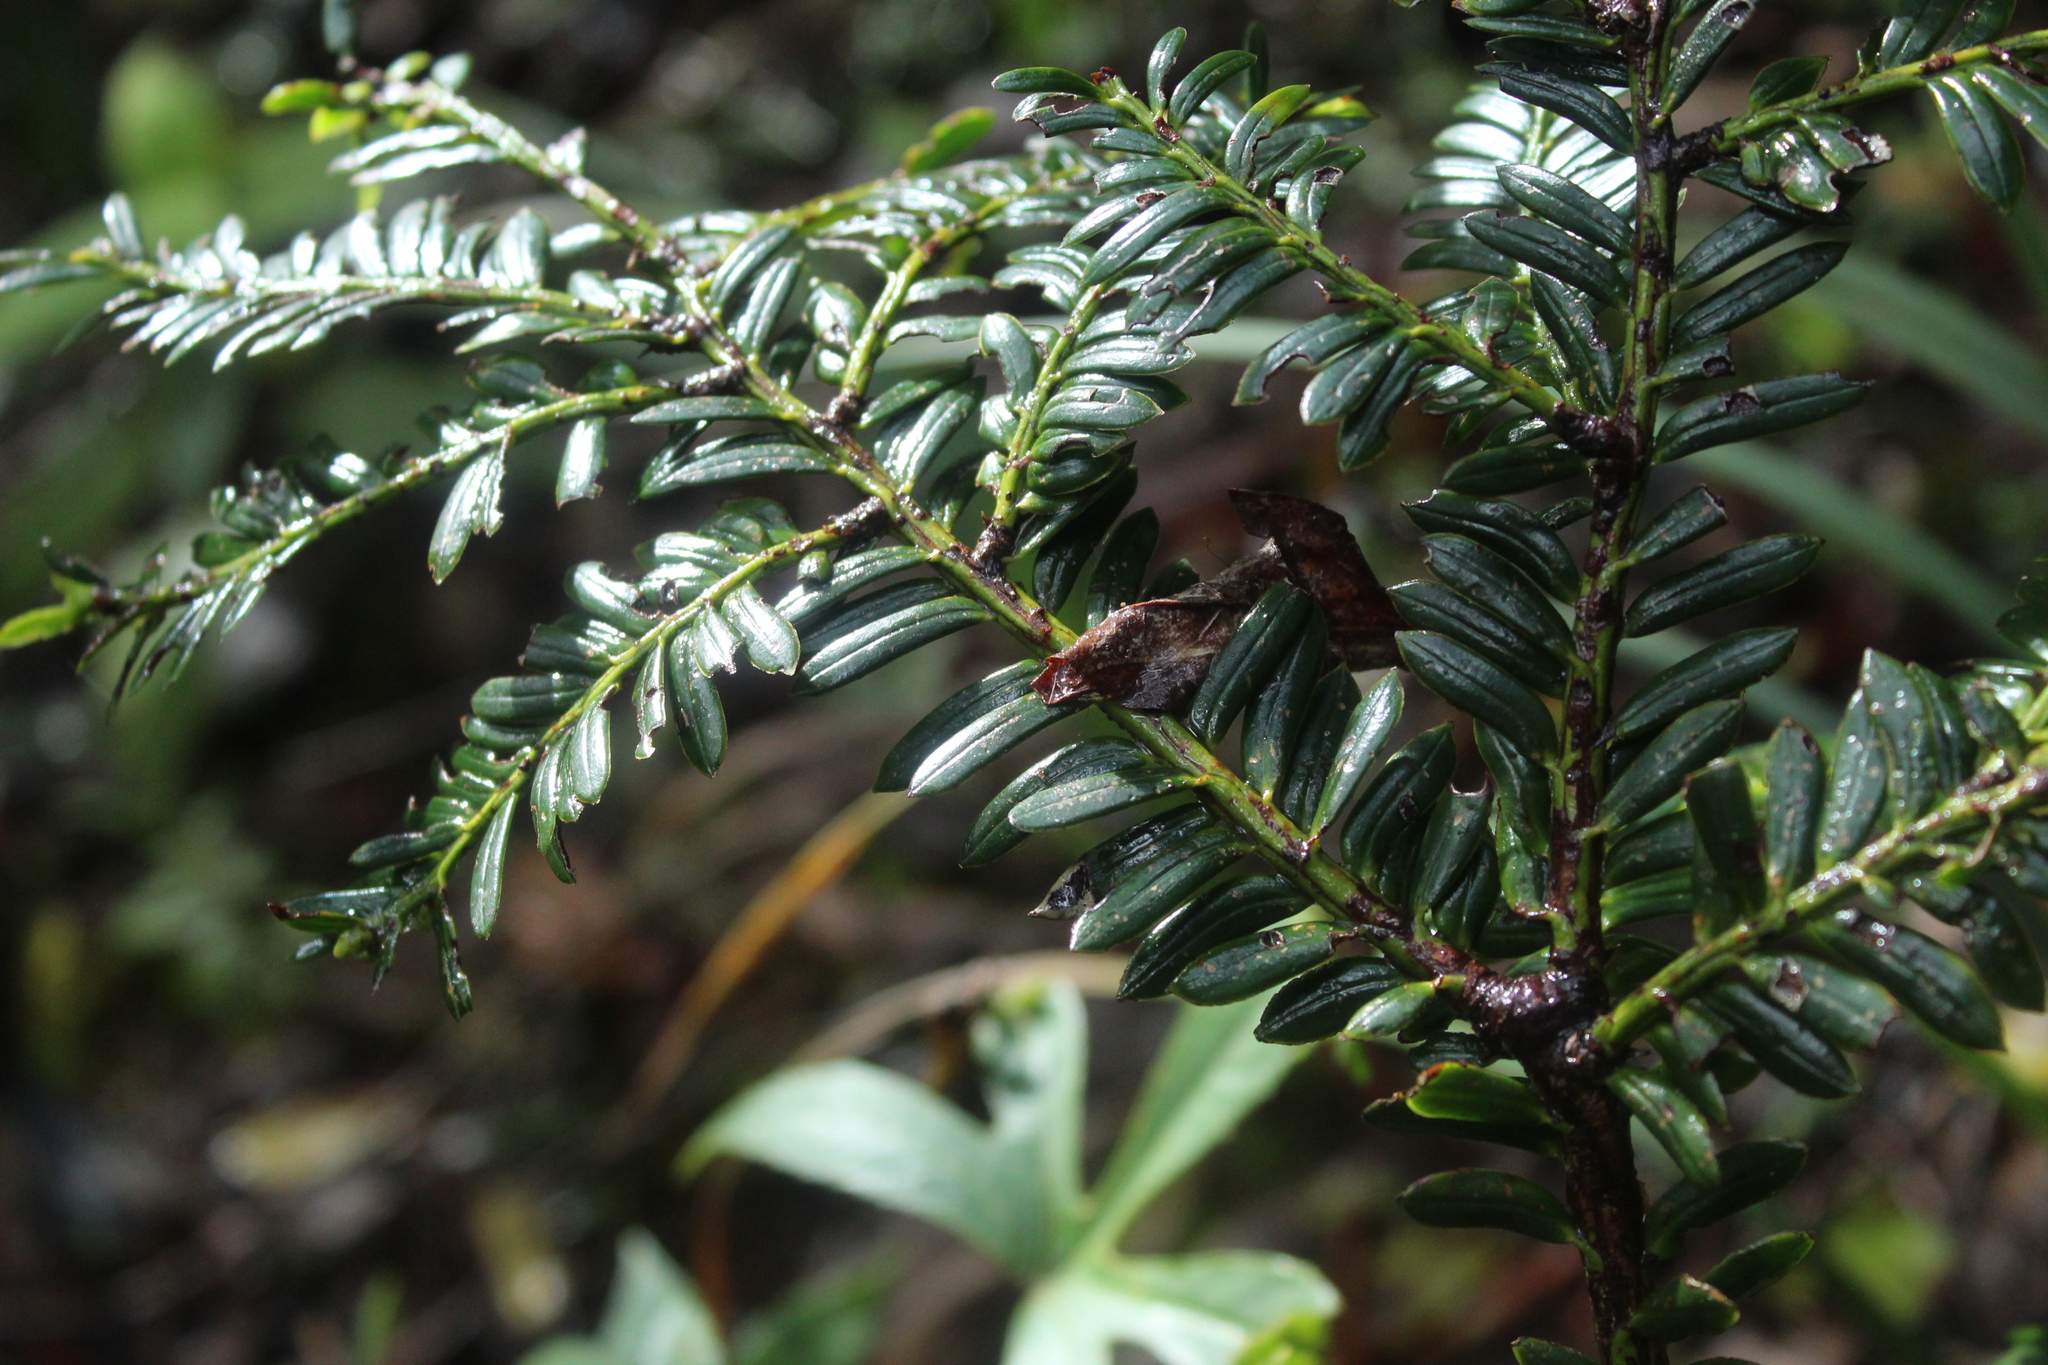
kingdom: Plantae
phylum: Tracheophyta
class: Pinopsida
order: Pinales
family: Podocarpaceae
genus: Prumnopitys
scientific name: Prumnopitys montana
